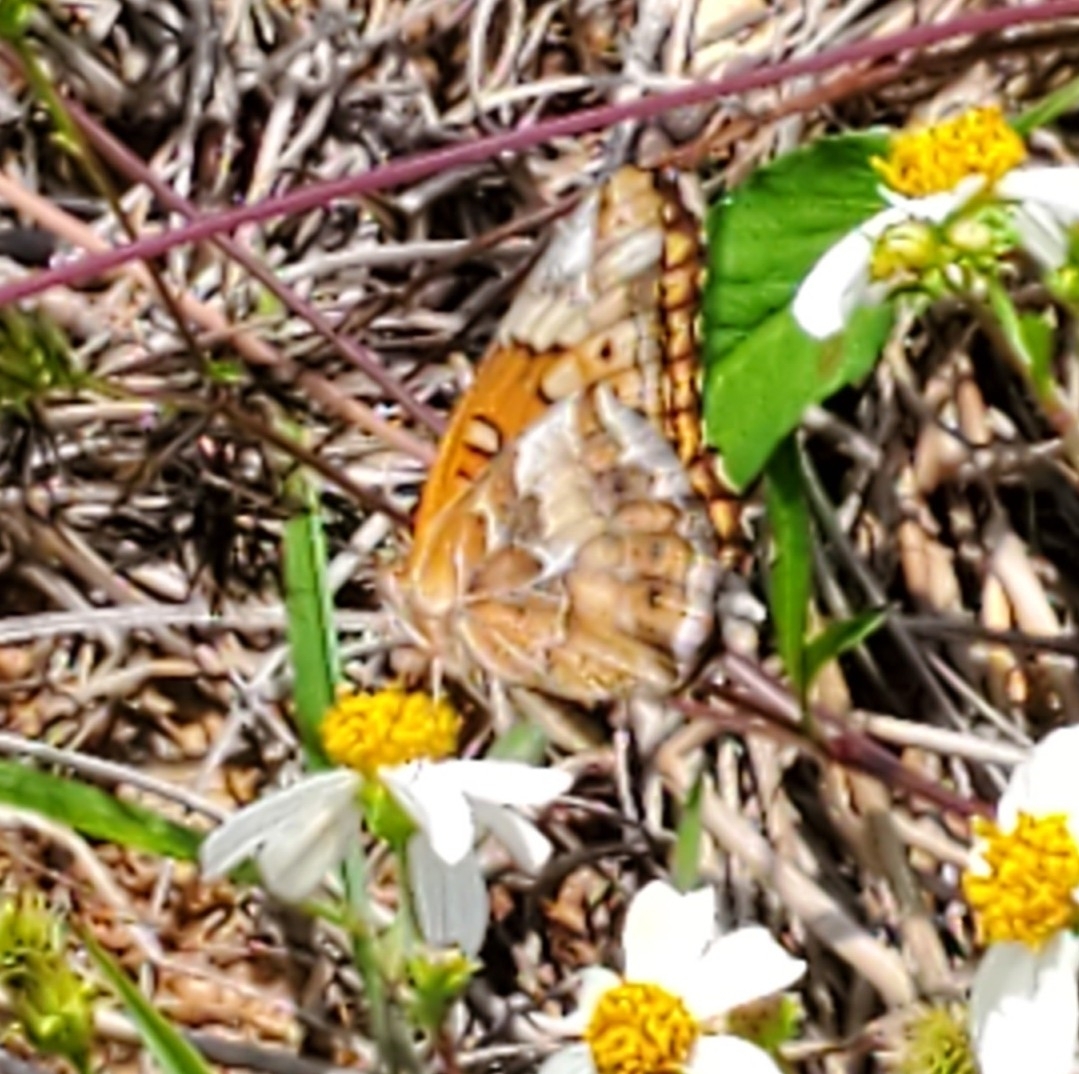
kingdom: Animalia
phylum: Arthropoda
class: Insecta
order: Lepidoptera
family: Nymphalidae
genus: Euptoieta
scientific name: Euptoieta claudia
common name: Variegated fritillary
